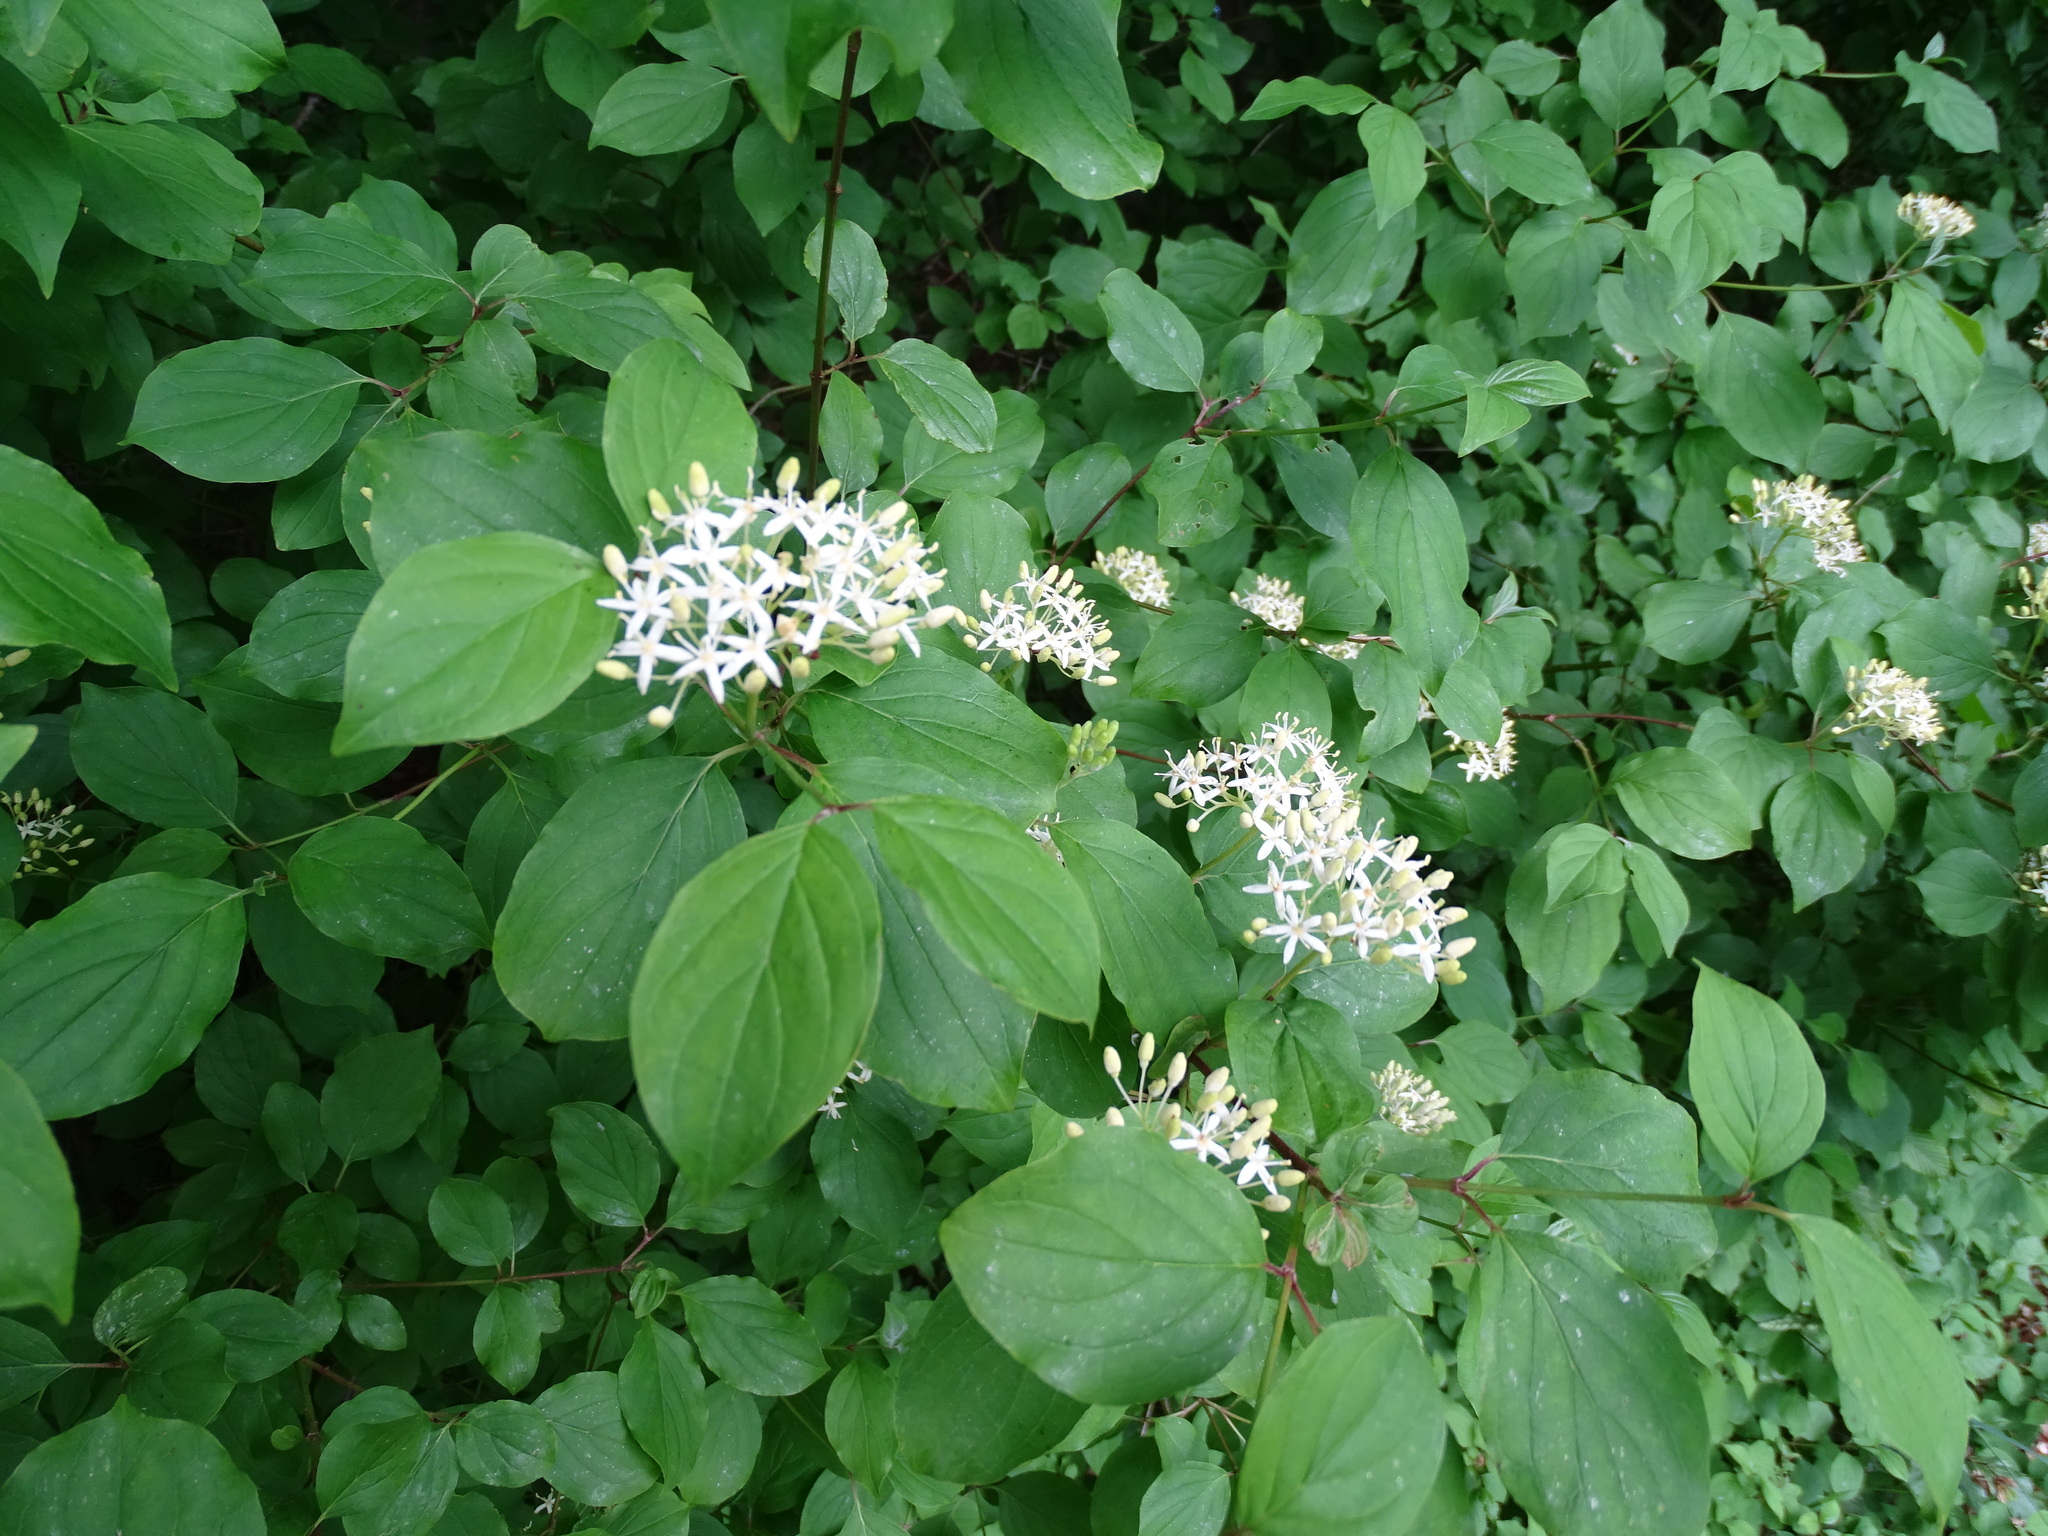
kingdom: Plantae
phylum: Tracheophyta
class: Magnoliopsida
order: Cornales
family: Cornaceae
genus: Cornus
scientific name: Cornus sanguinea
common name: Dogwood
